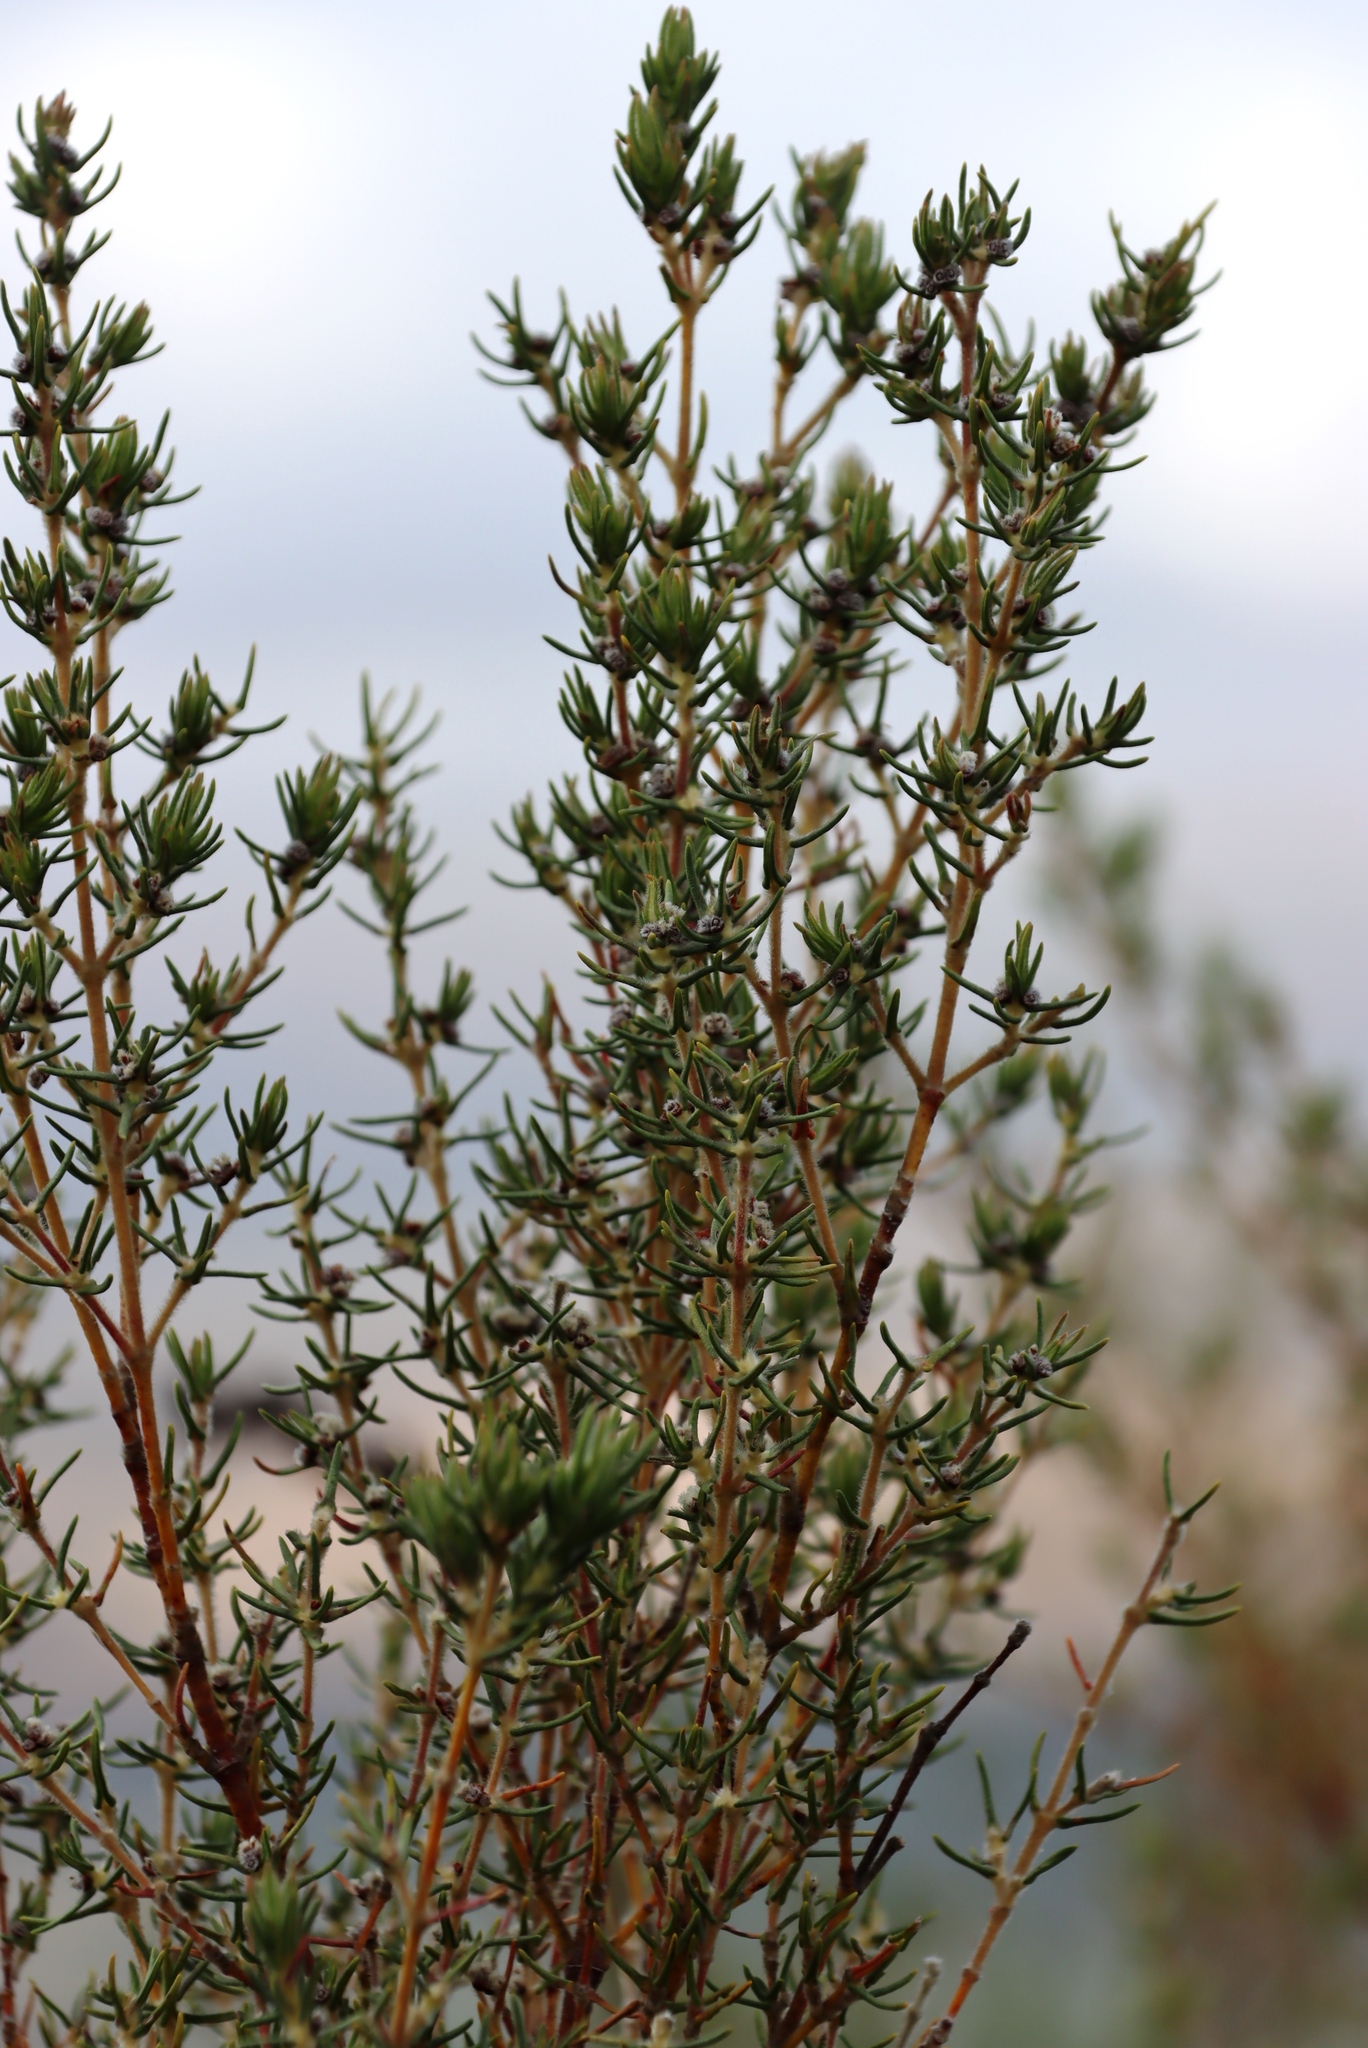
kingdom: Plantae
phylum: Tracheophyta
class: Magnoliopsida
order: Cornales
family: Grubbiaceae
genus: Grubbia
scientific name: Grubbia rosmarinifolia
